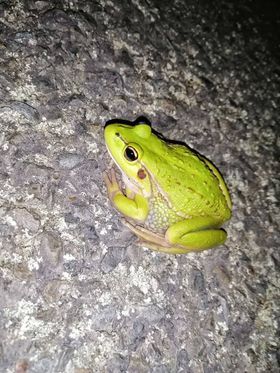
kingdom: Animalia
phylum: Chordata
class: Amphibia
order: Anura
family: Pelodryadidae
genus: Ranoidea
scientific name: Ranoidea raniformis
